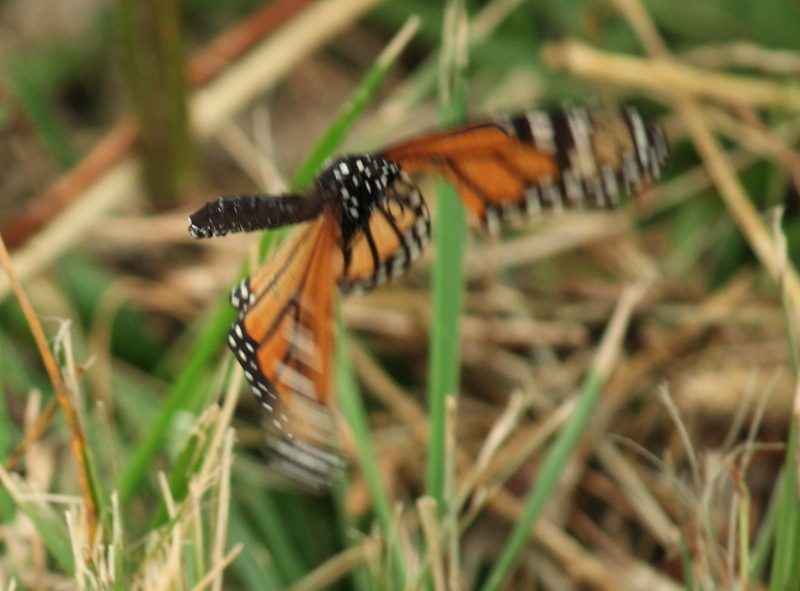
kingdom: Animalia
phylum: Arthropoda
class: Insecta
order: Lepidoptera
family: Nymphalidae
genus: Danaus
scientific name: Danaus plexippus
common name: Monarch
